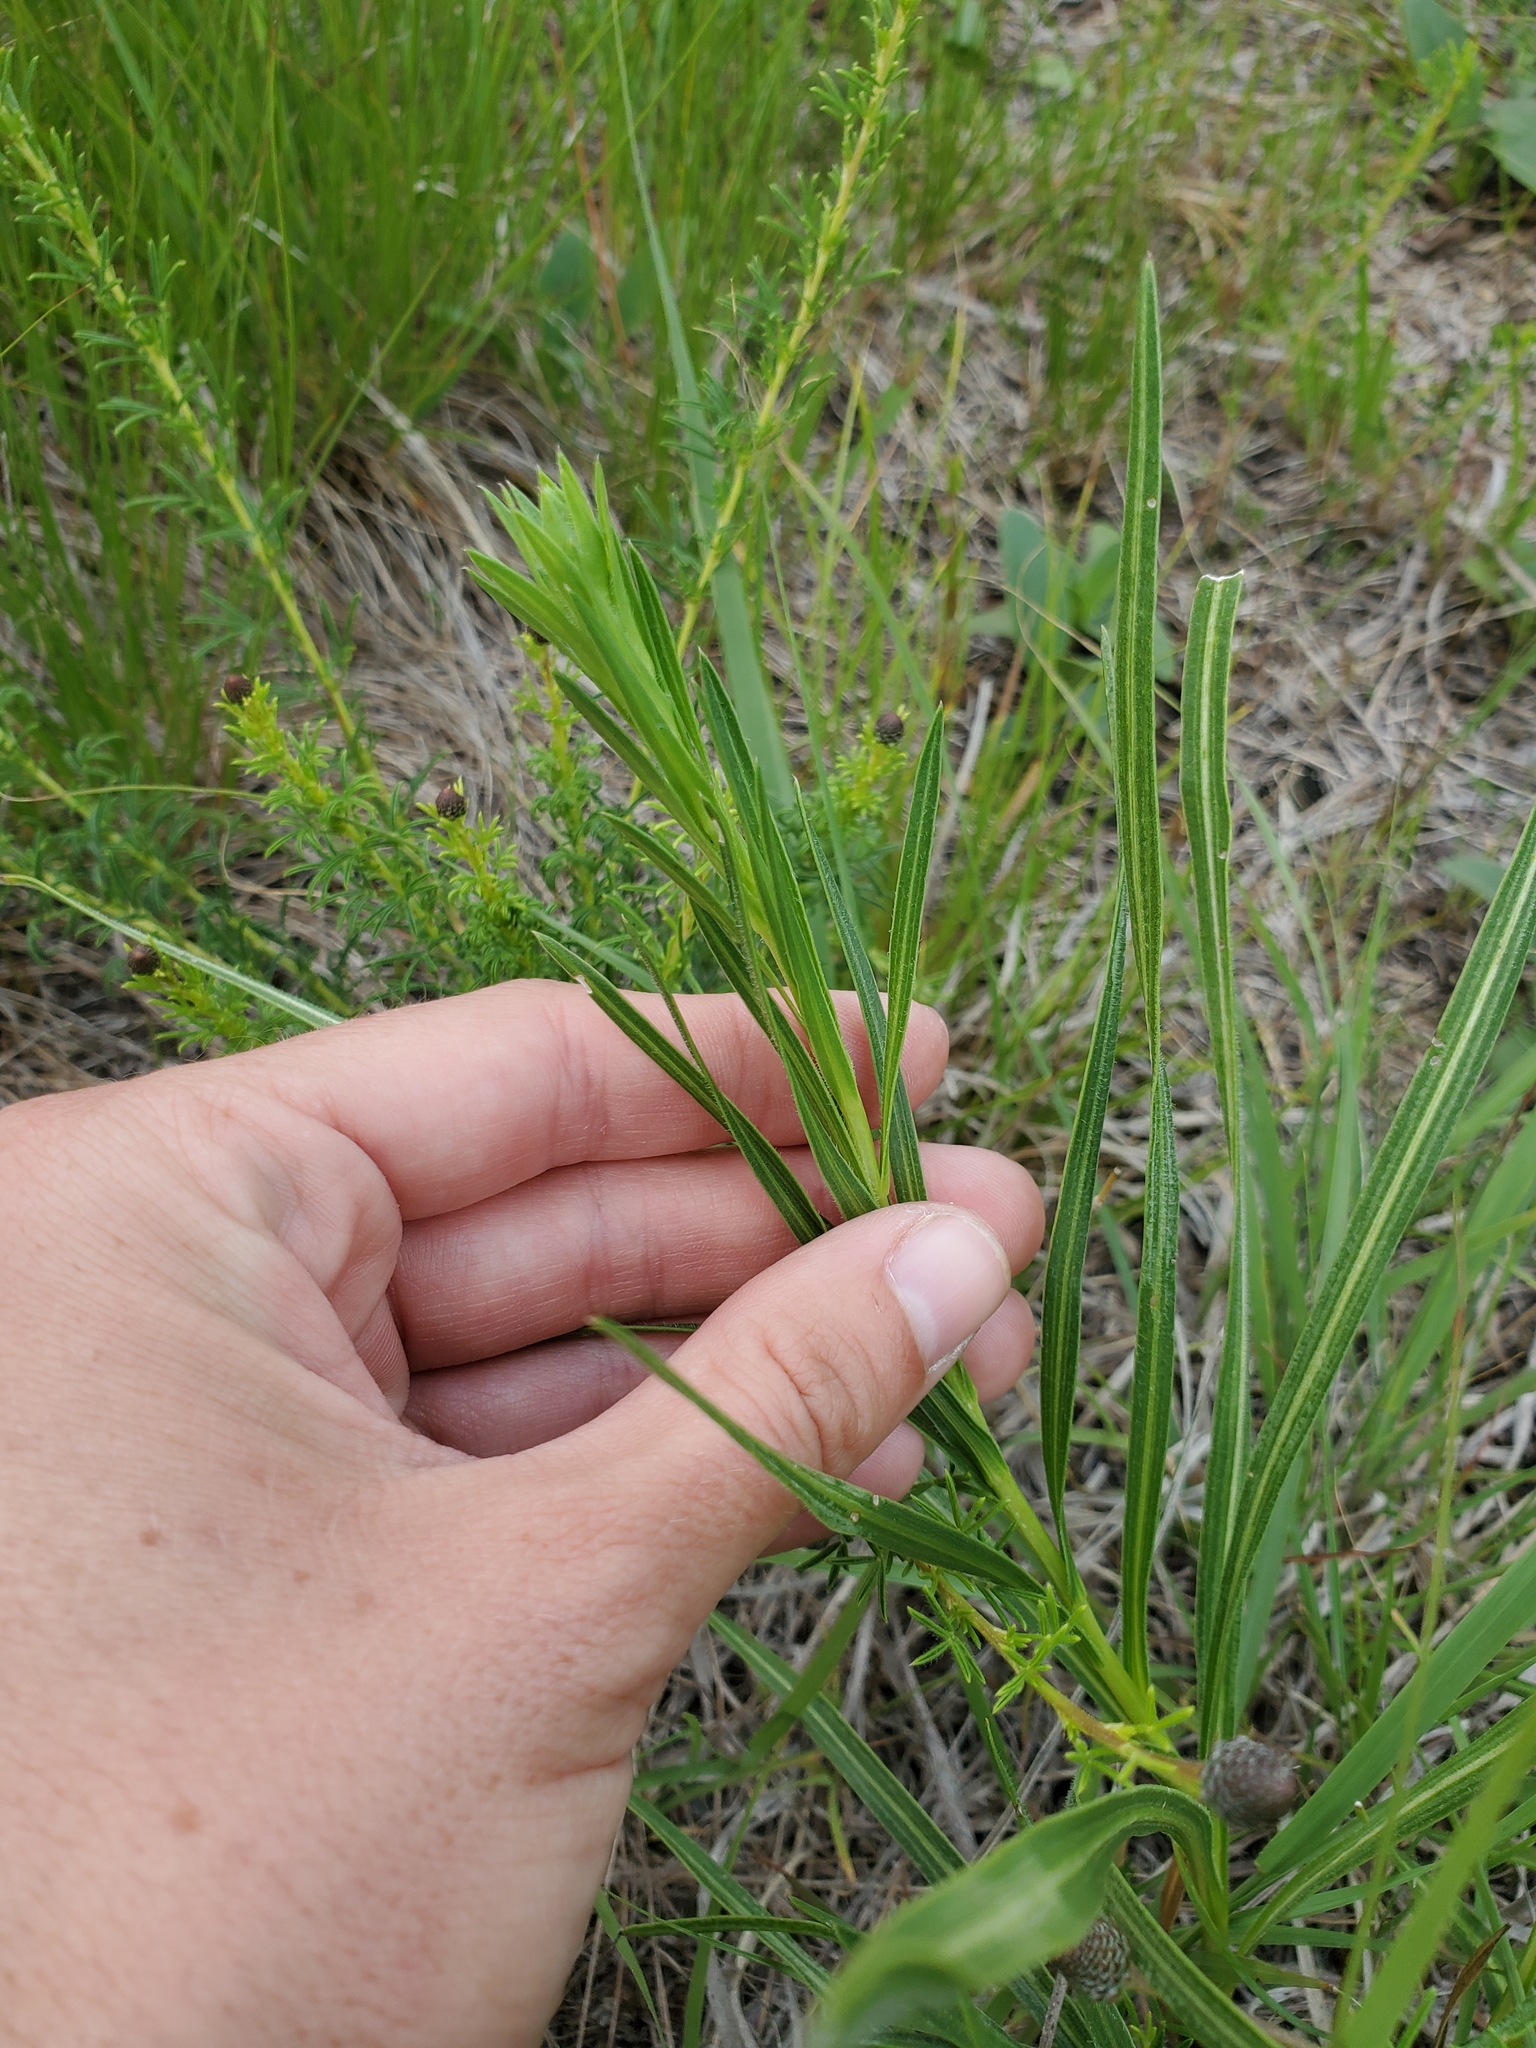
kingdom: Plantae
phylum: Tracheophyta
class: Magnoliopsida
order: Asterales
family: Asteraceae
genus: Liatris
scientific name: Liatris cylindracea
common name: Few-head blazingstar
